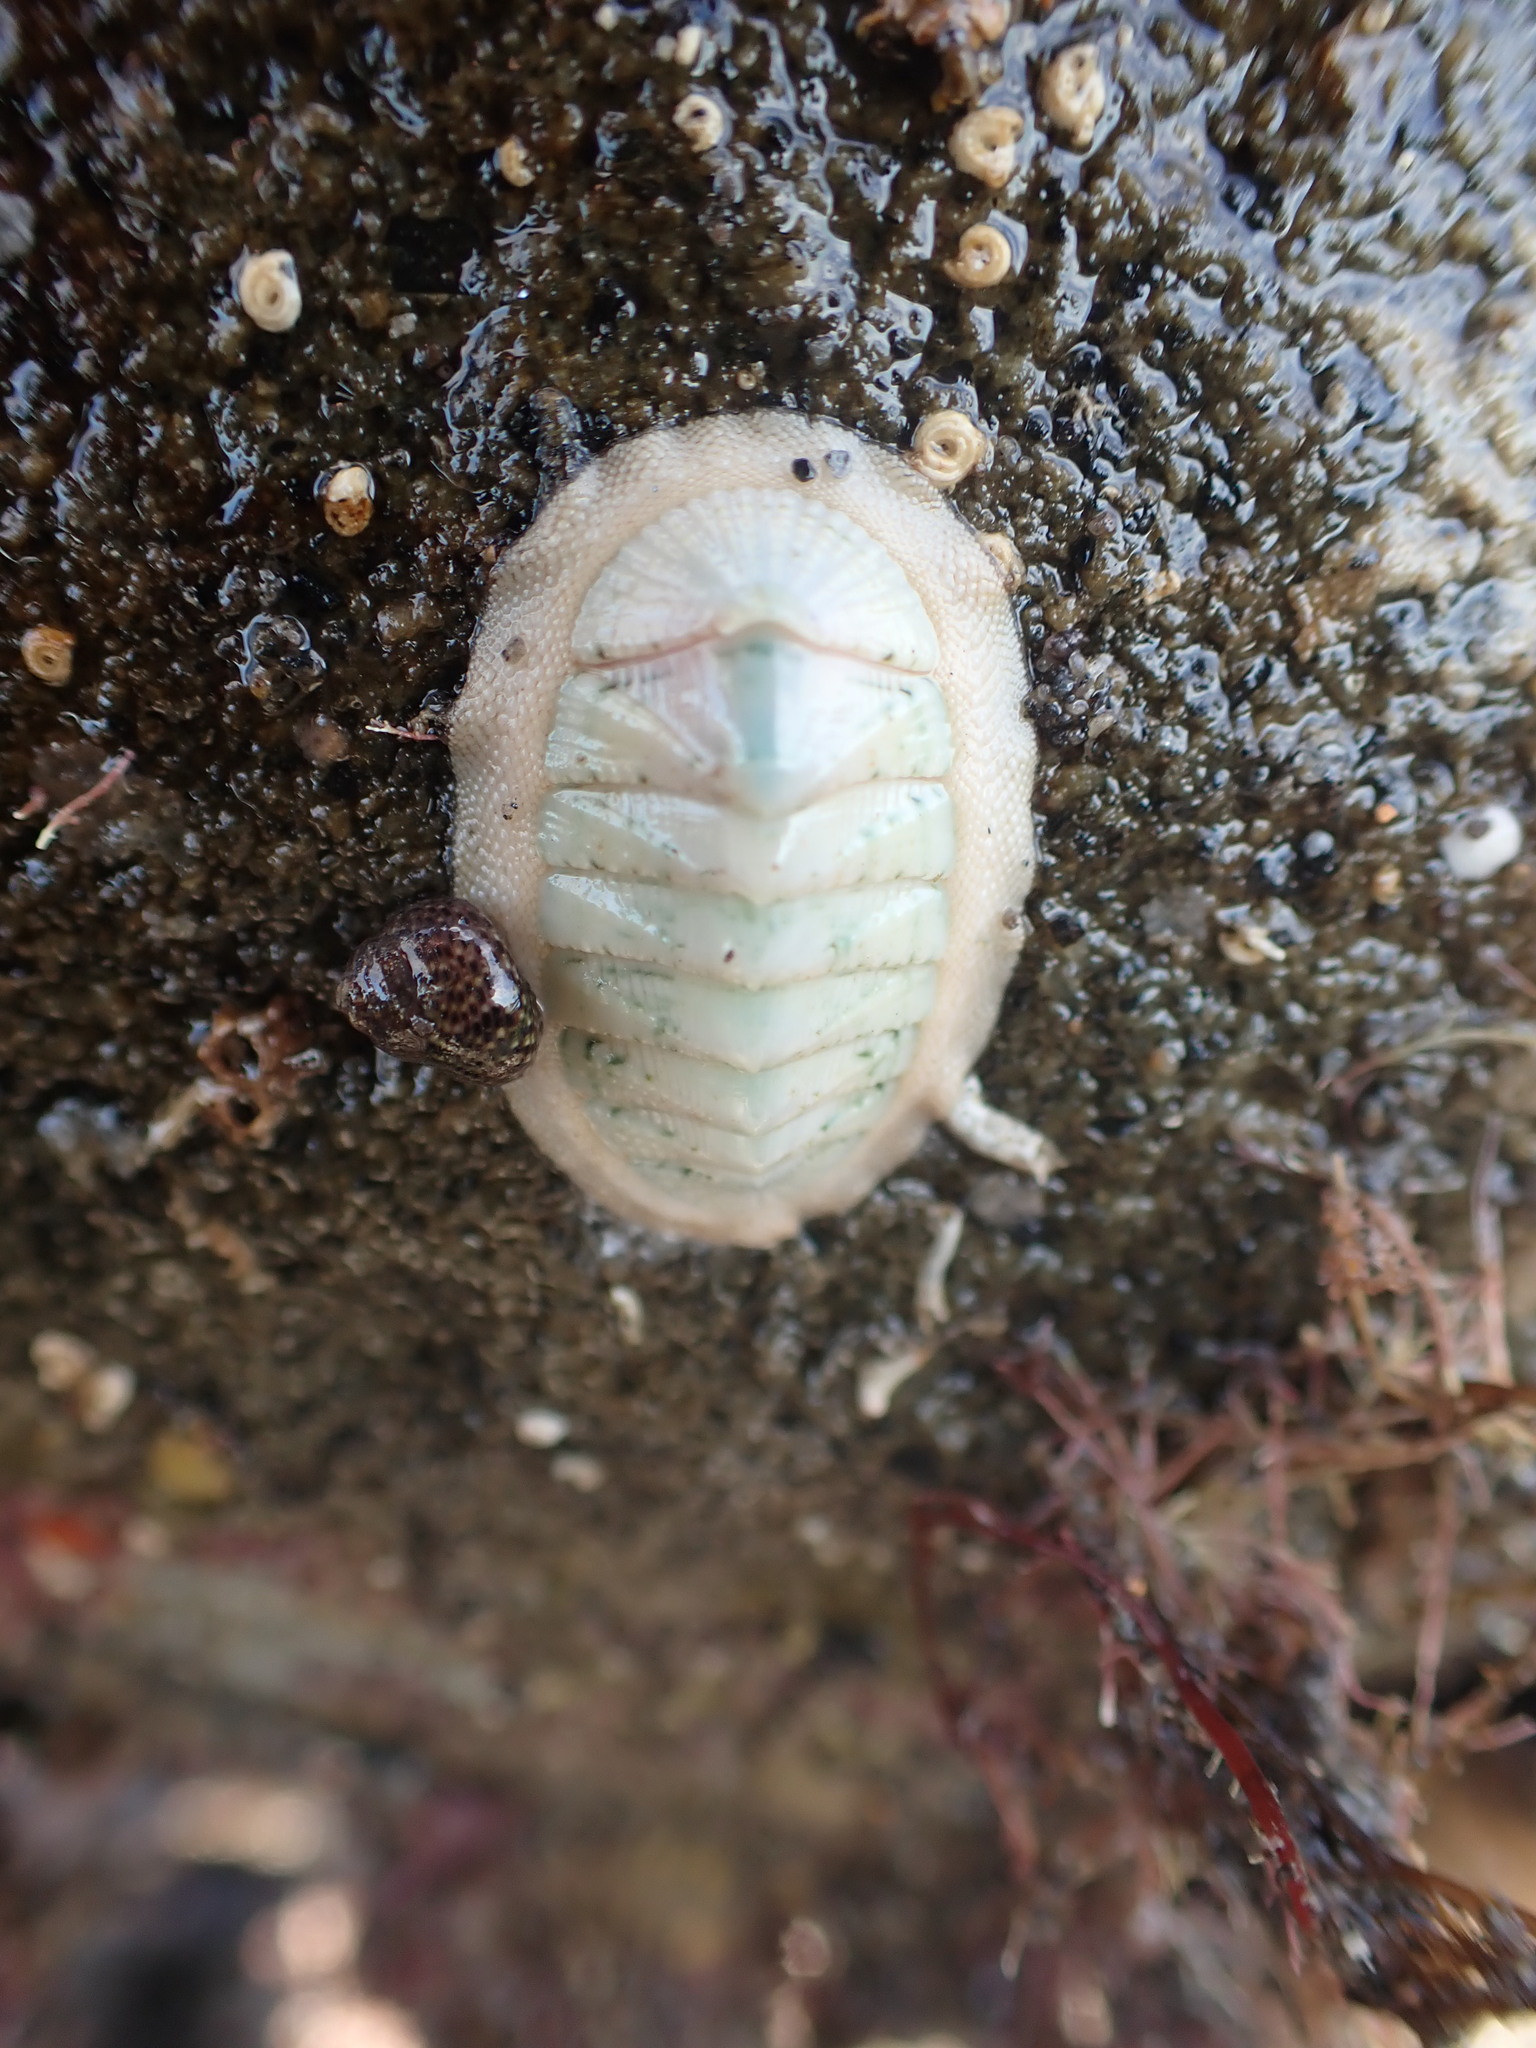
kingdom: Animalia
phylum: Mollusca
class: Polyplacophora
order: Chitonida
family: Chitonidae
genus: Rhyssoplax
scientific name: Rhyssoplax aerea
